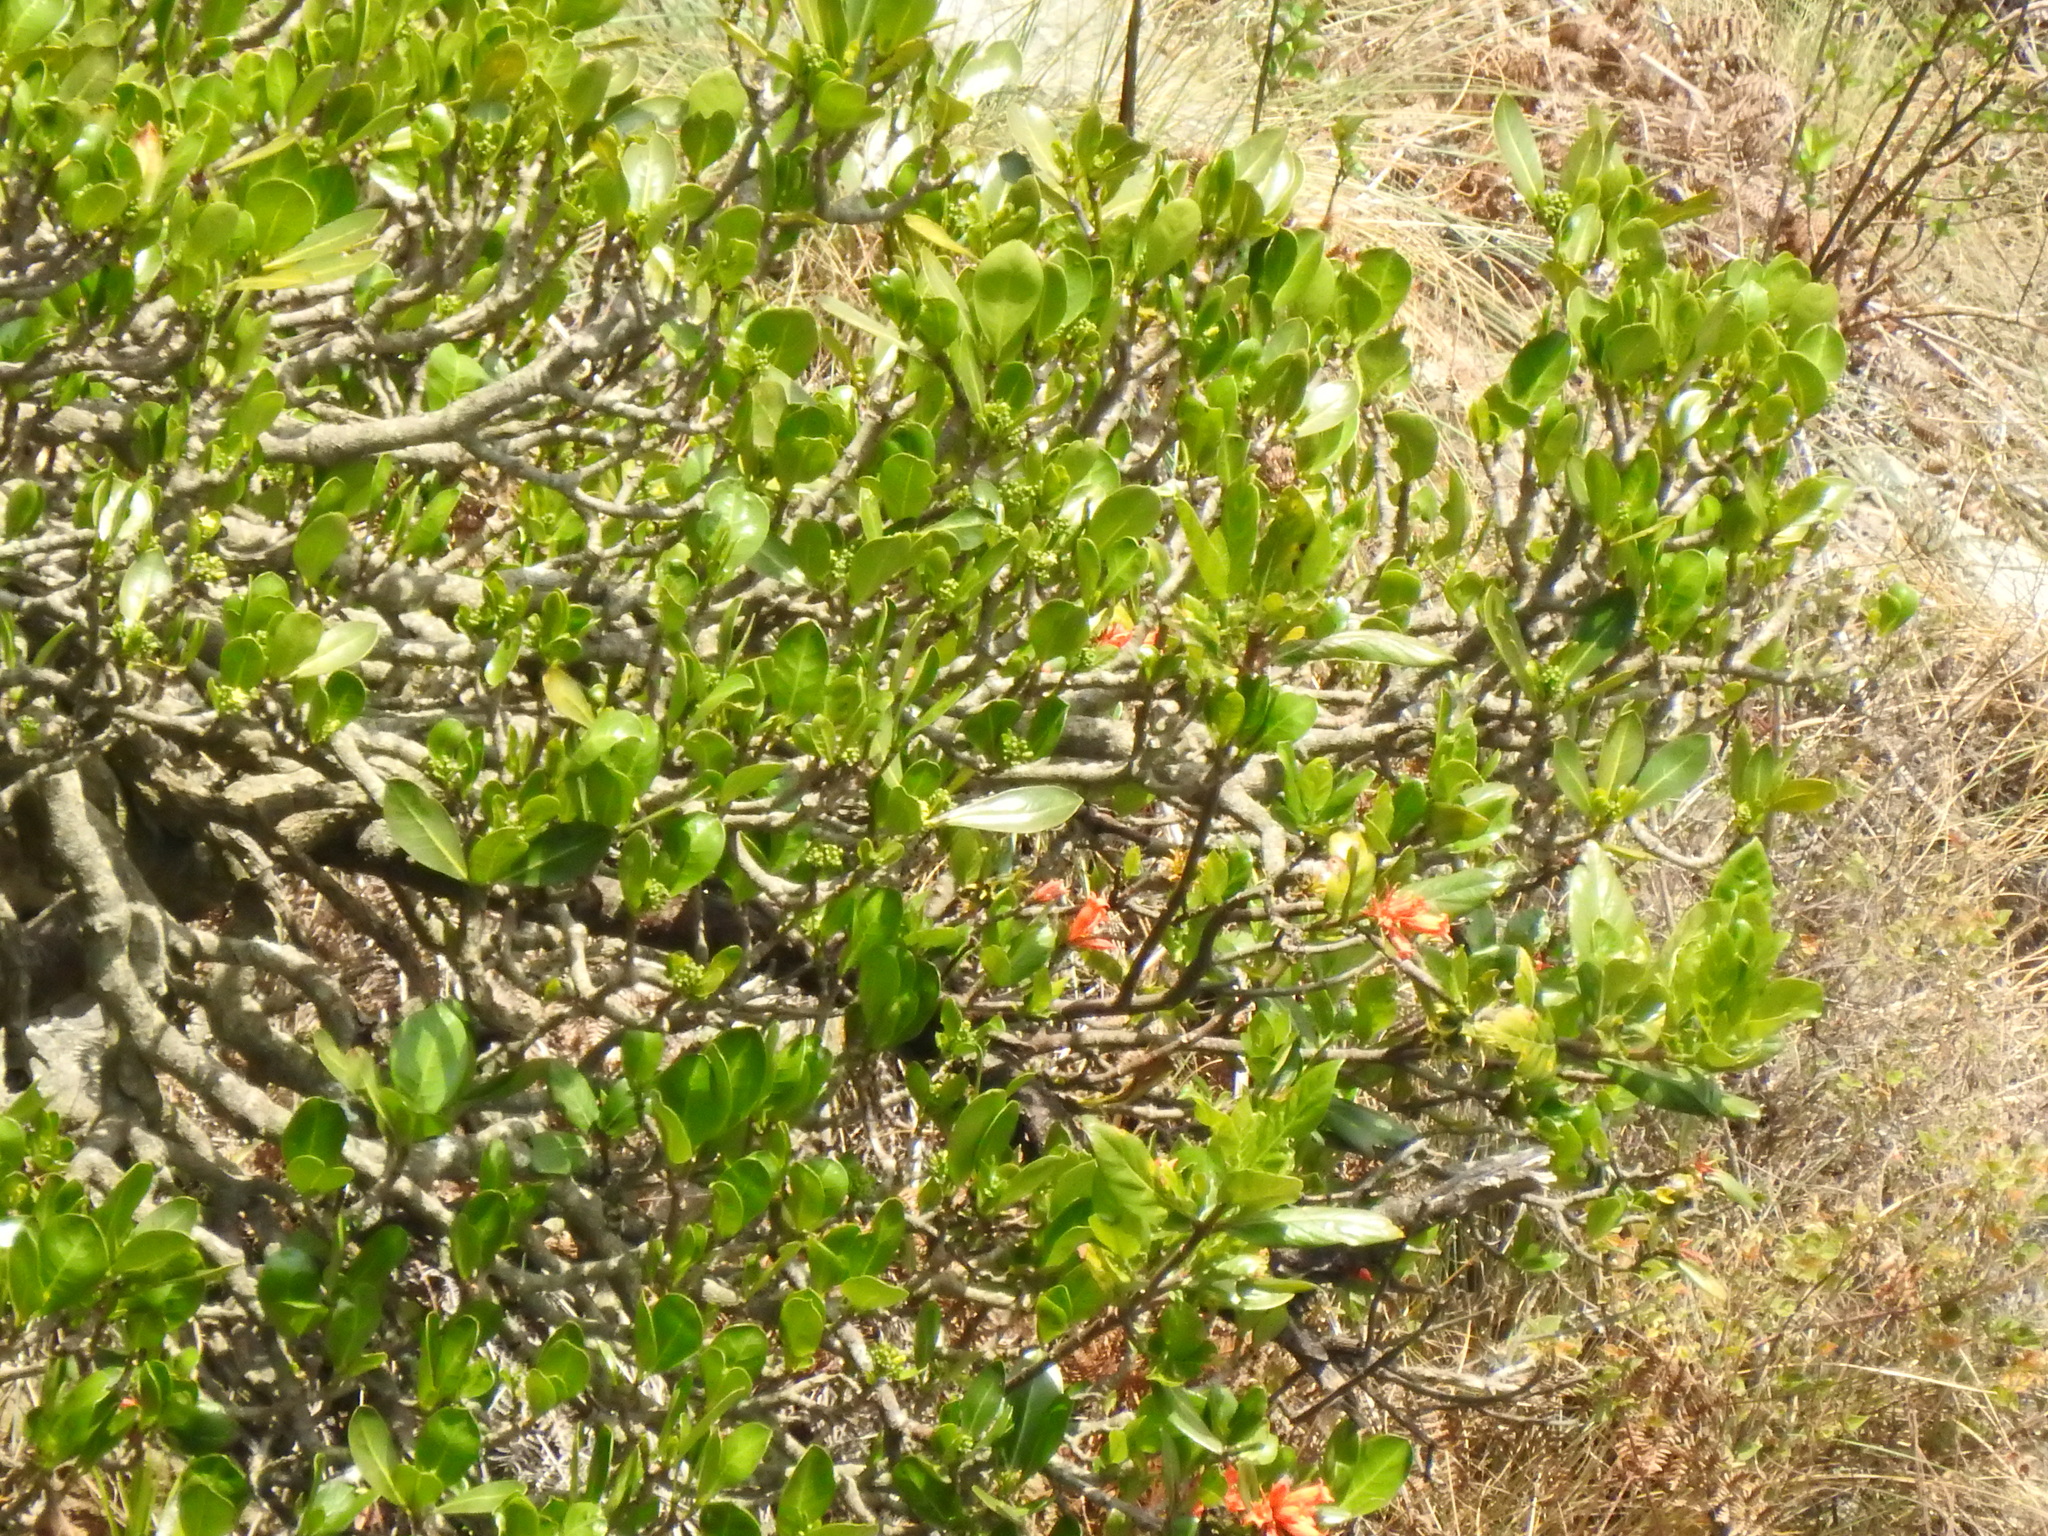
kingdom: Plantae
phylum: Tracheophyta
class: Magnoliopsida
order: Gentianales
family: Rubiaceae
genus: Burchellia
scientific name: Burchellia bubalina
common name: Wild pomegranate
